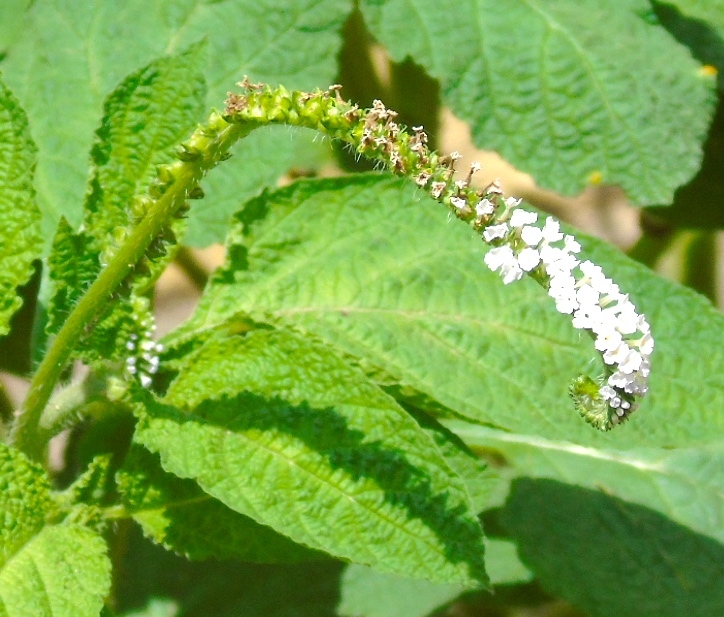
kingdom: Plantae
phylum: Tracheophyta
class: Magnoliopsida
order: Boraginales
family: Heliotropiaceae
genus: Heliotropium
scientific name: Heliotropium indicum
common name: Indian heliotrope
